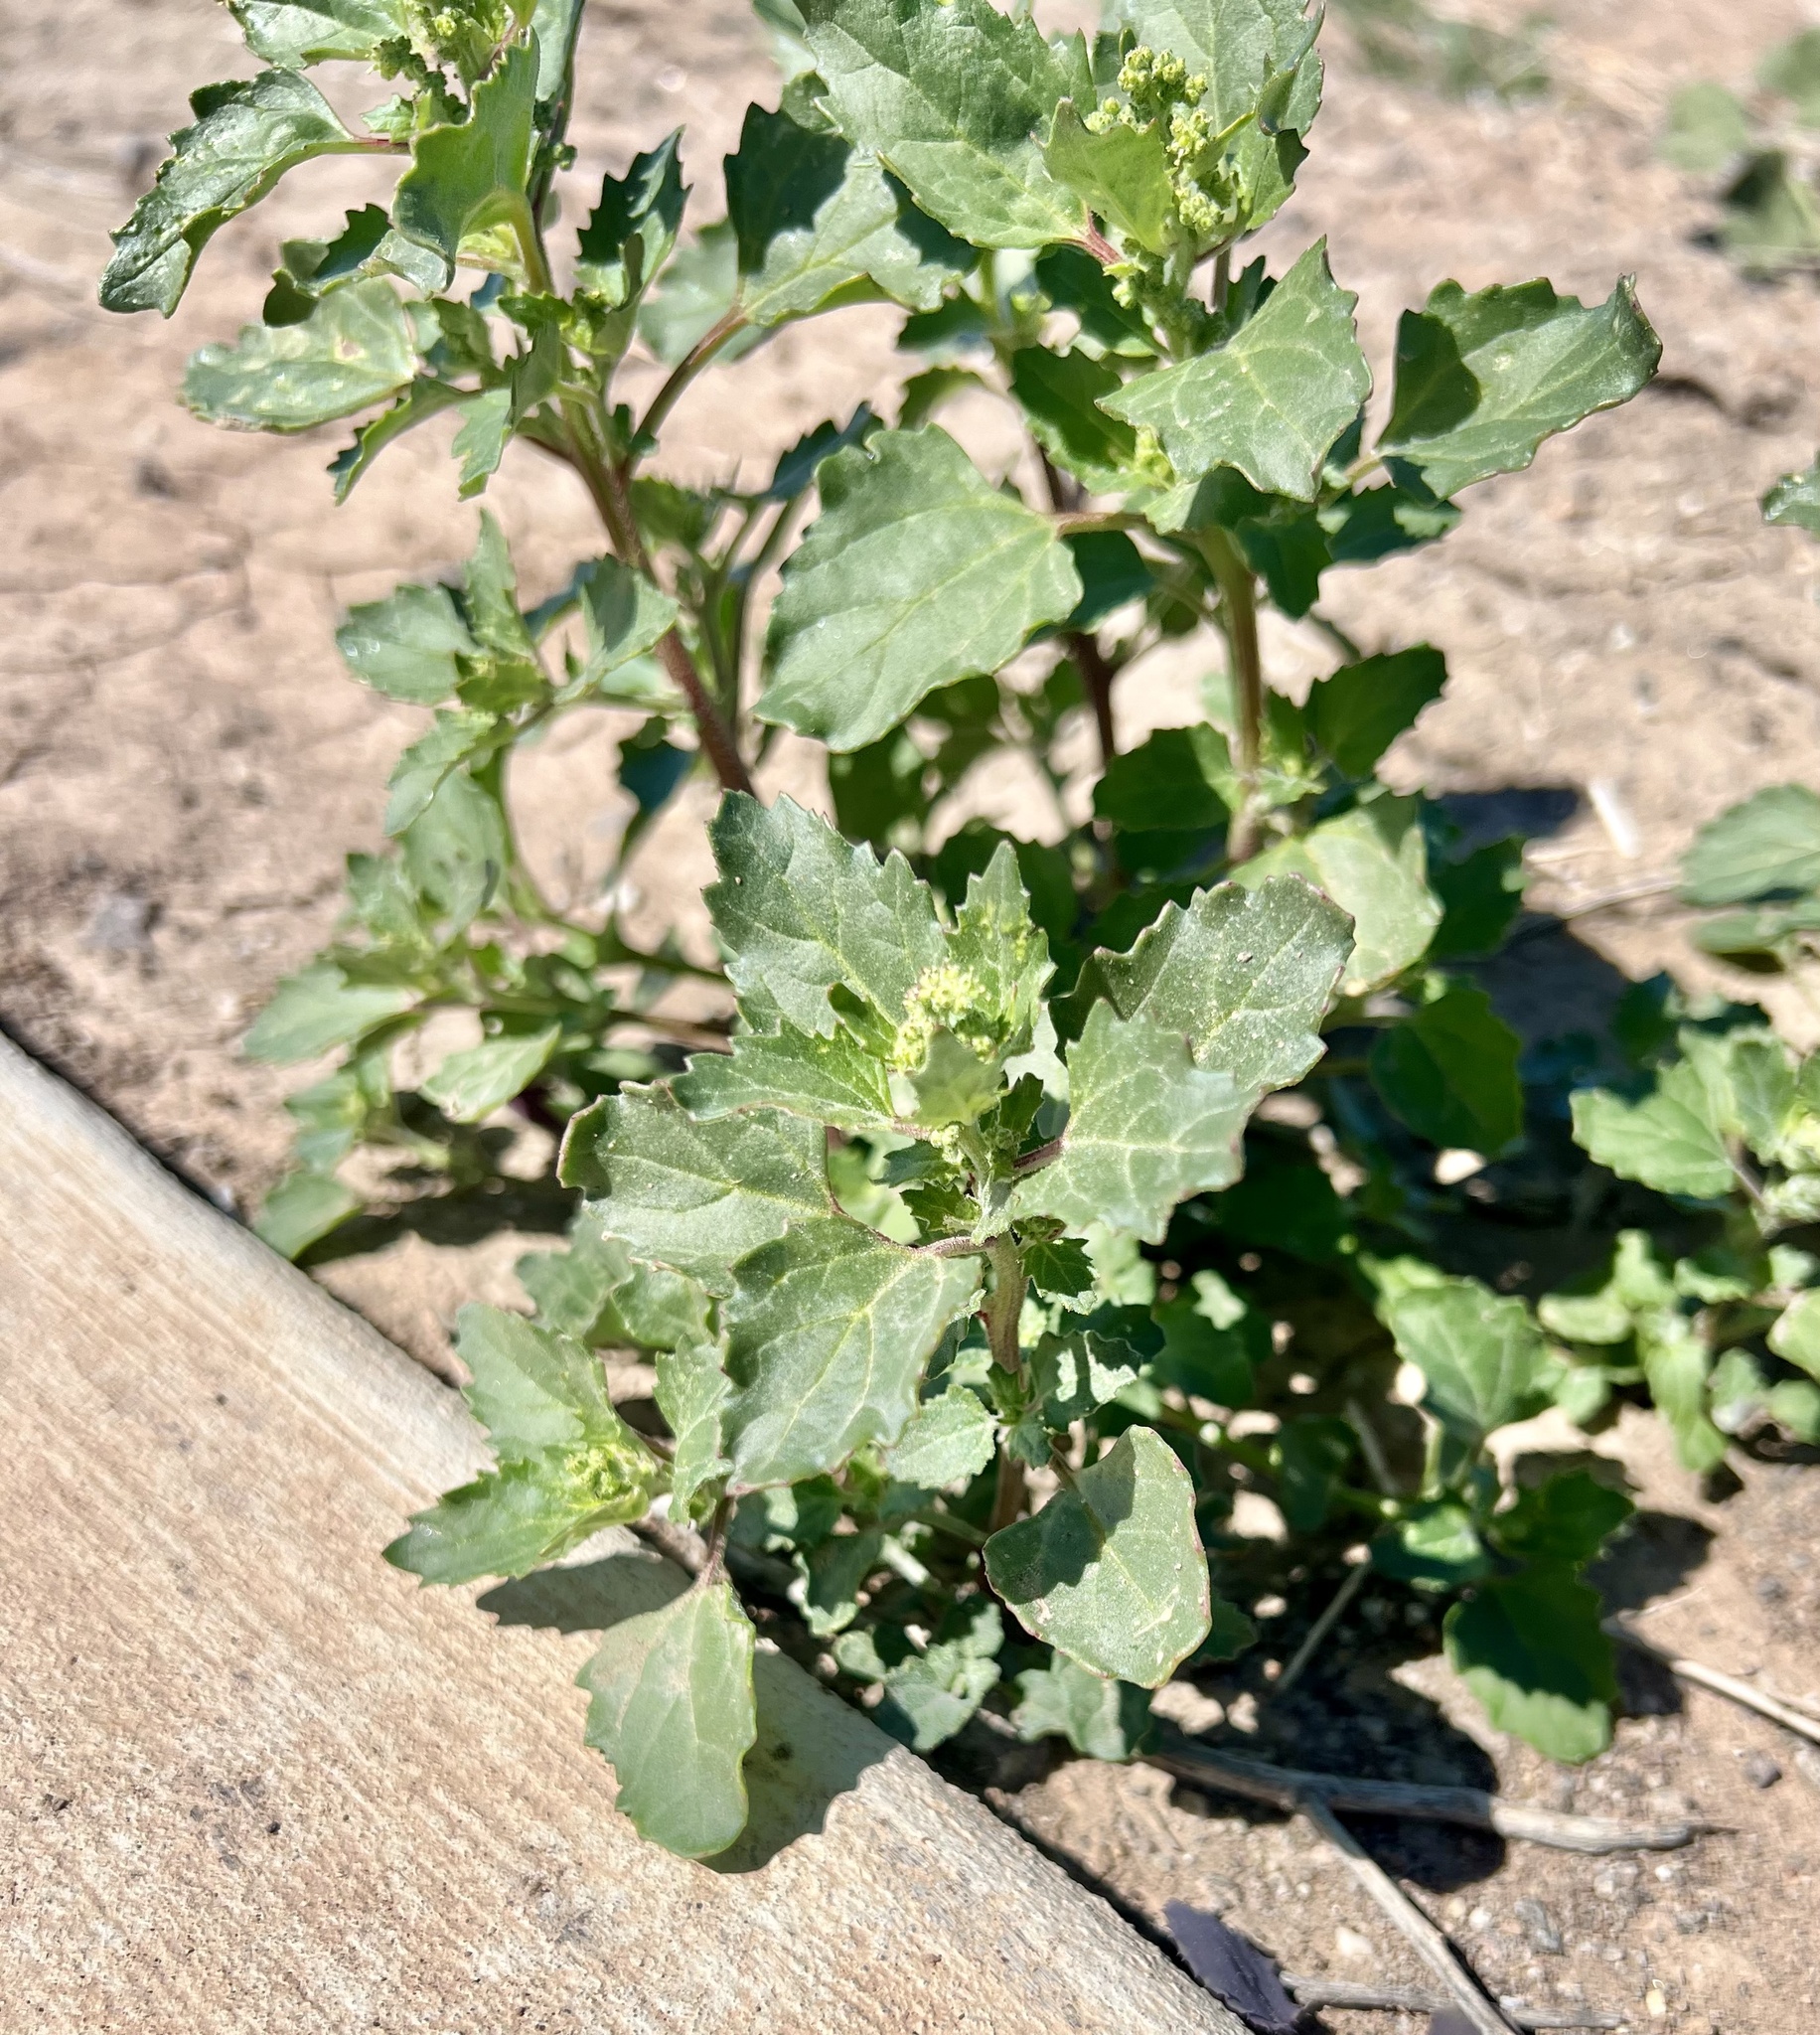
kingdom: Plantae
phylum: Tracheophyta
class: Magnoliopsida
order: Caryophyllales
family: Amaranthaceae
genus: Chenopodiastrum
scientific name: Chenopodiastrum murale
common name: Sowbane
